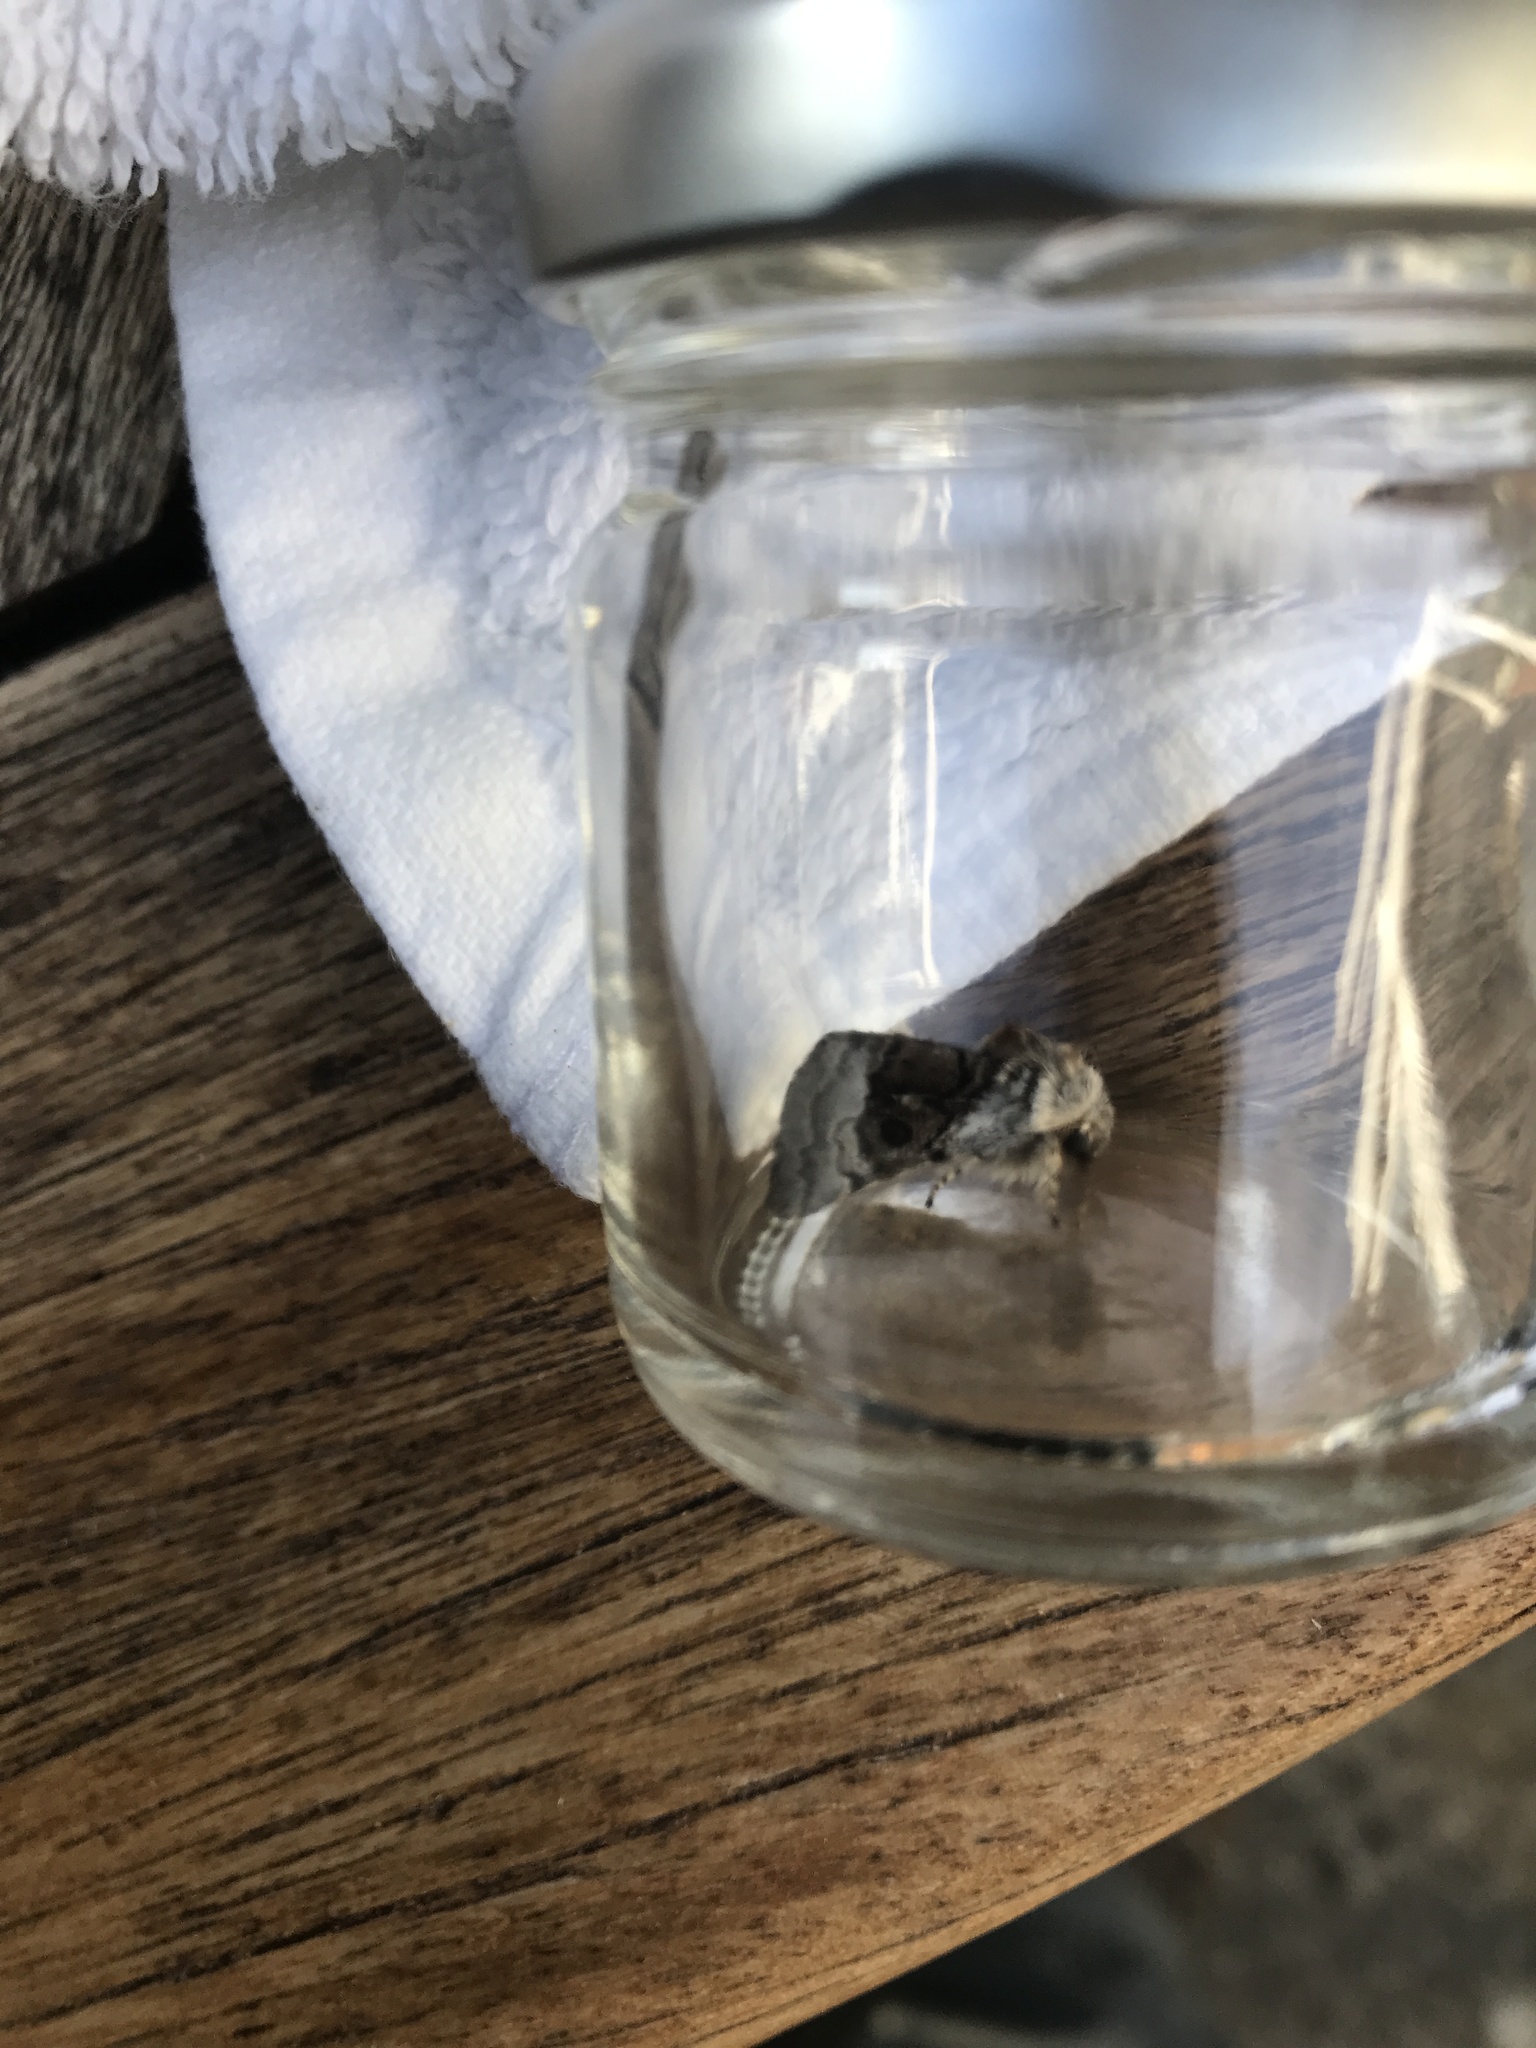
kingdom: Animalia
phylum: Arthropoda
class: Insecta
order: Lepidoptera
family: Noctuidae
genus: Colocasia
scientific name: Colocasia coryli
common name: Nut-tree tussock
